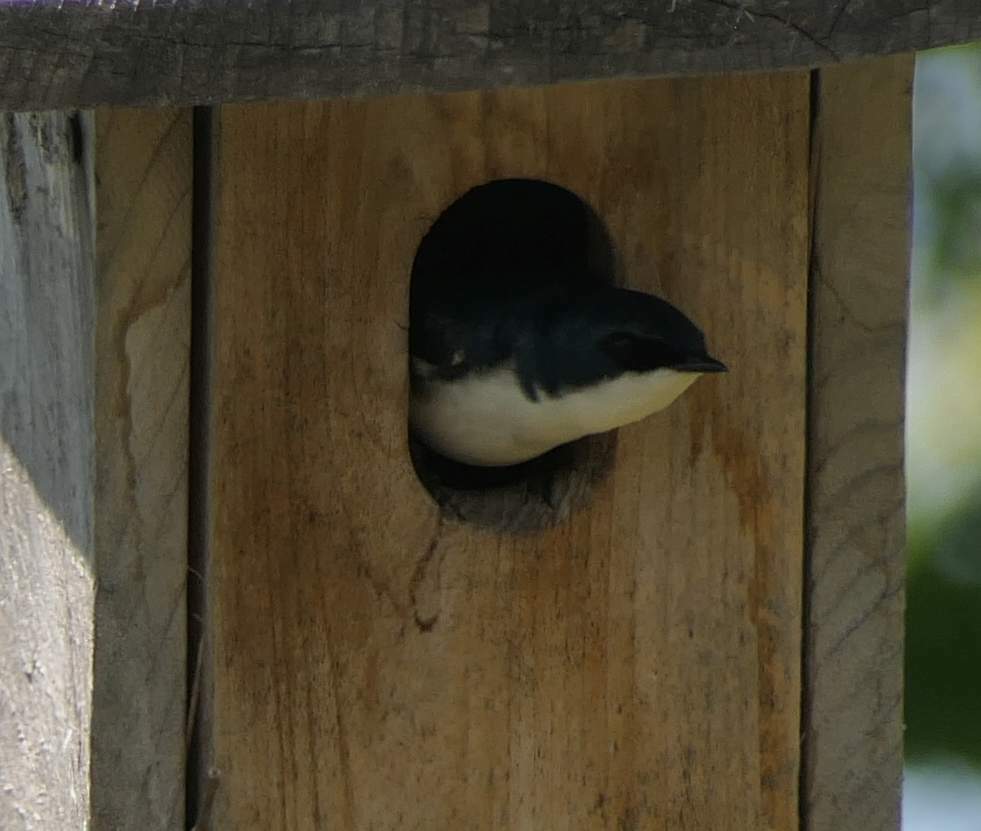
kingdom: Animalia
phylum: Chordata
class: Aves
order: Passeriformes
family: Hirundinidae
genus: Tachycineta
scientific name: Tachycineta bicolor
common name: Tree swallow
